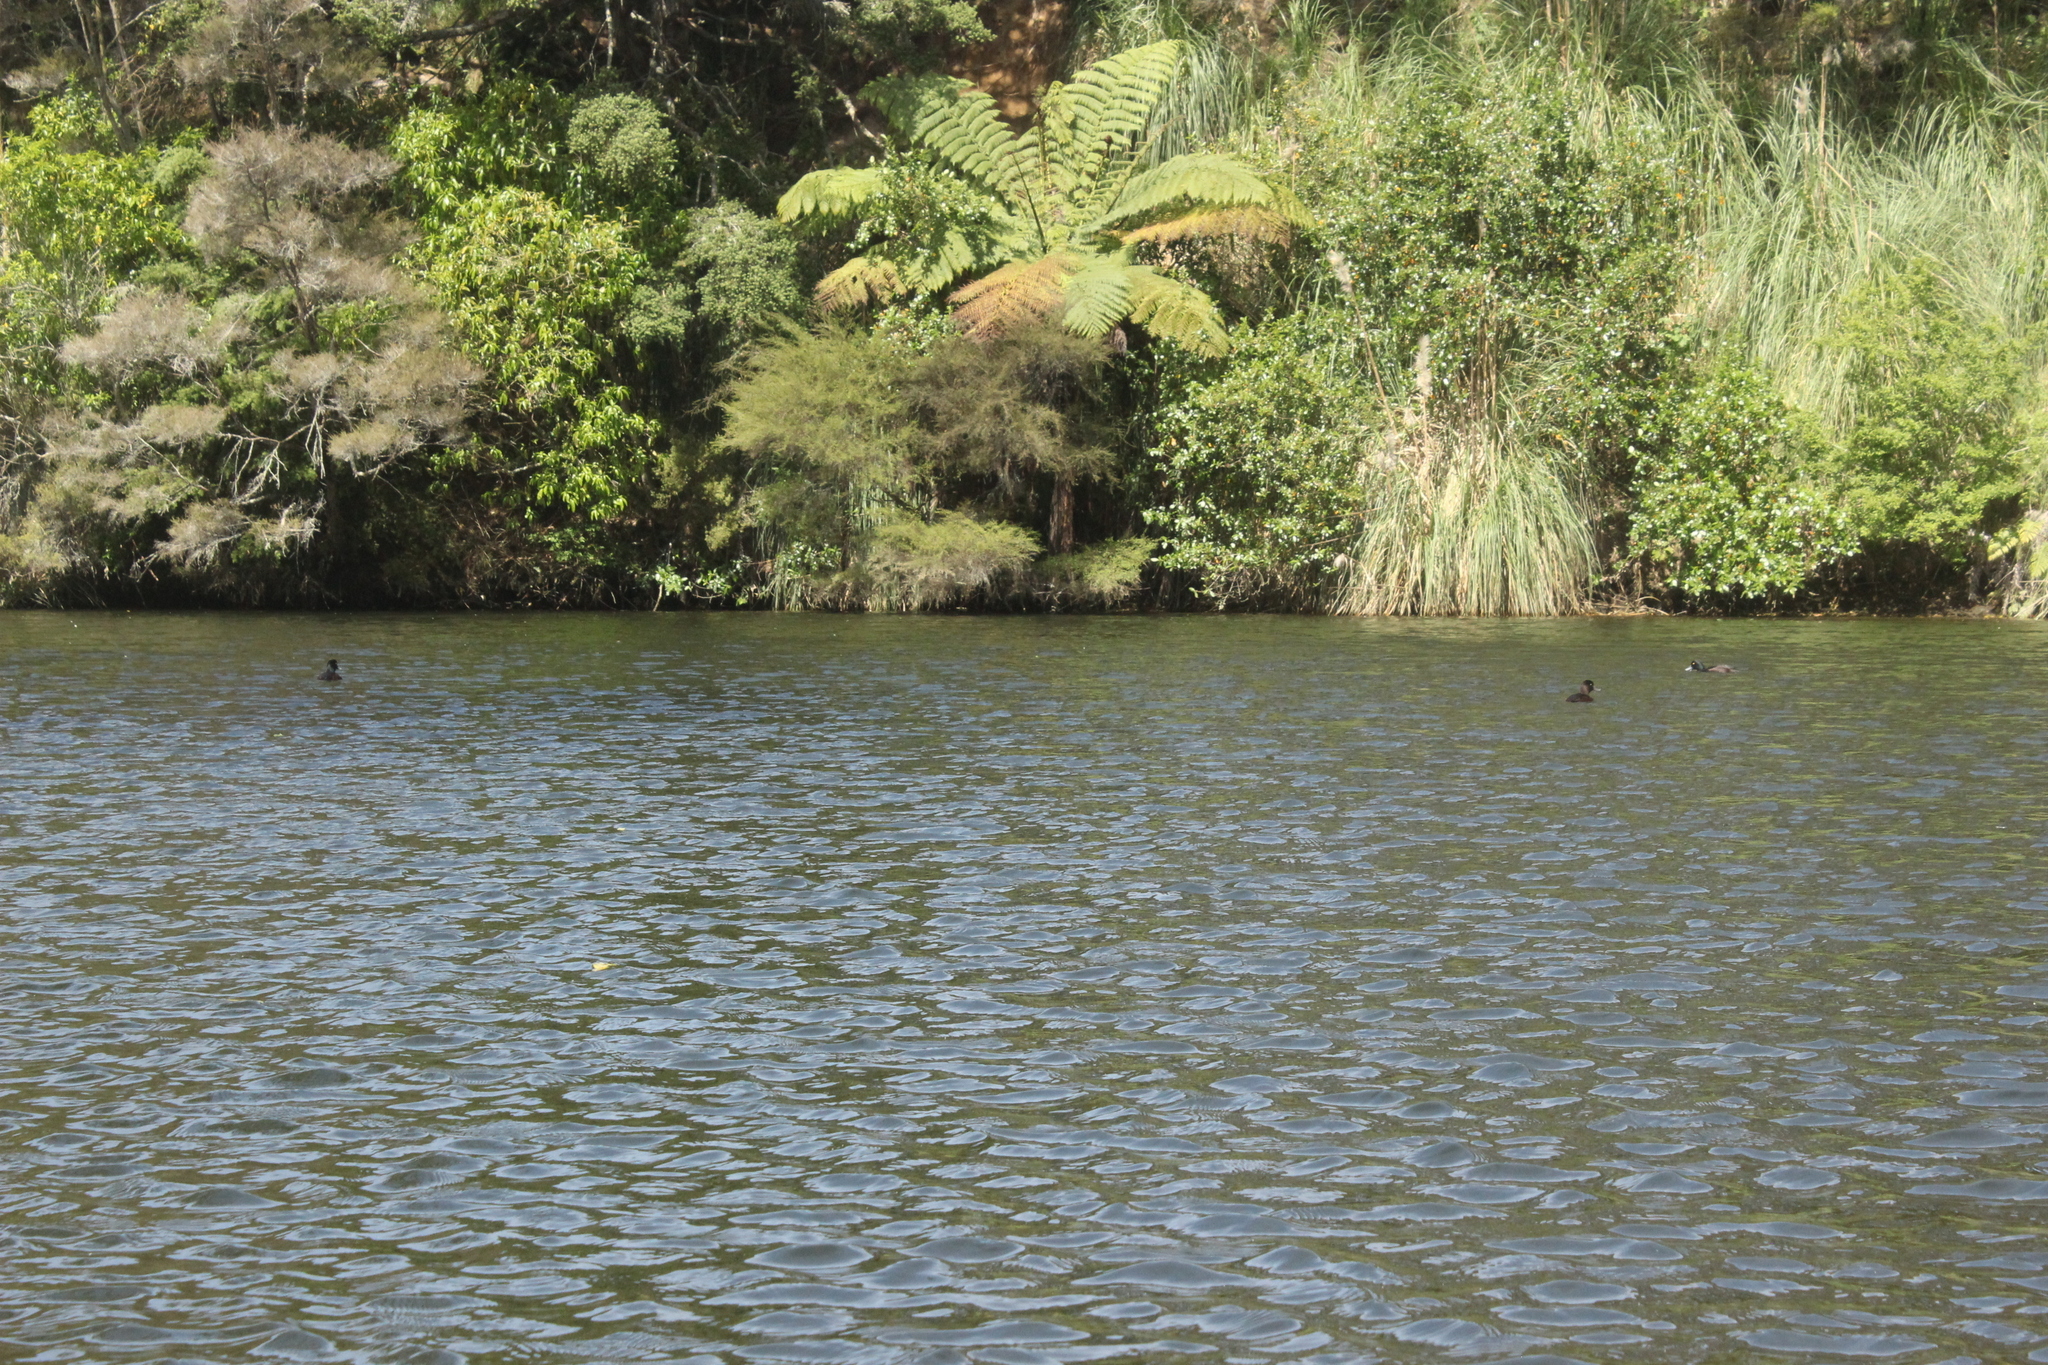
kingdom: Animalia
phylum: Chordata
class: Aves
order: Anseriformes
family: Anatidae
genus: Aythya
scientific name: Aythya novaeseelandiae
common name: New zealand scaup
